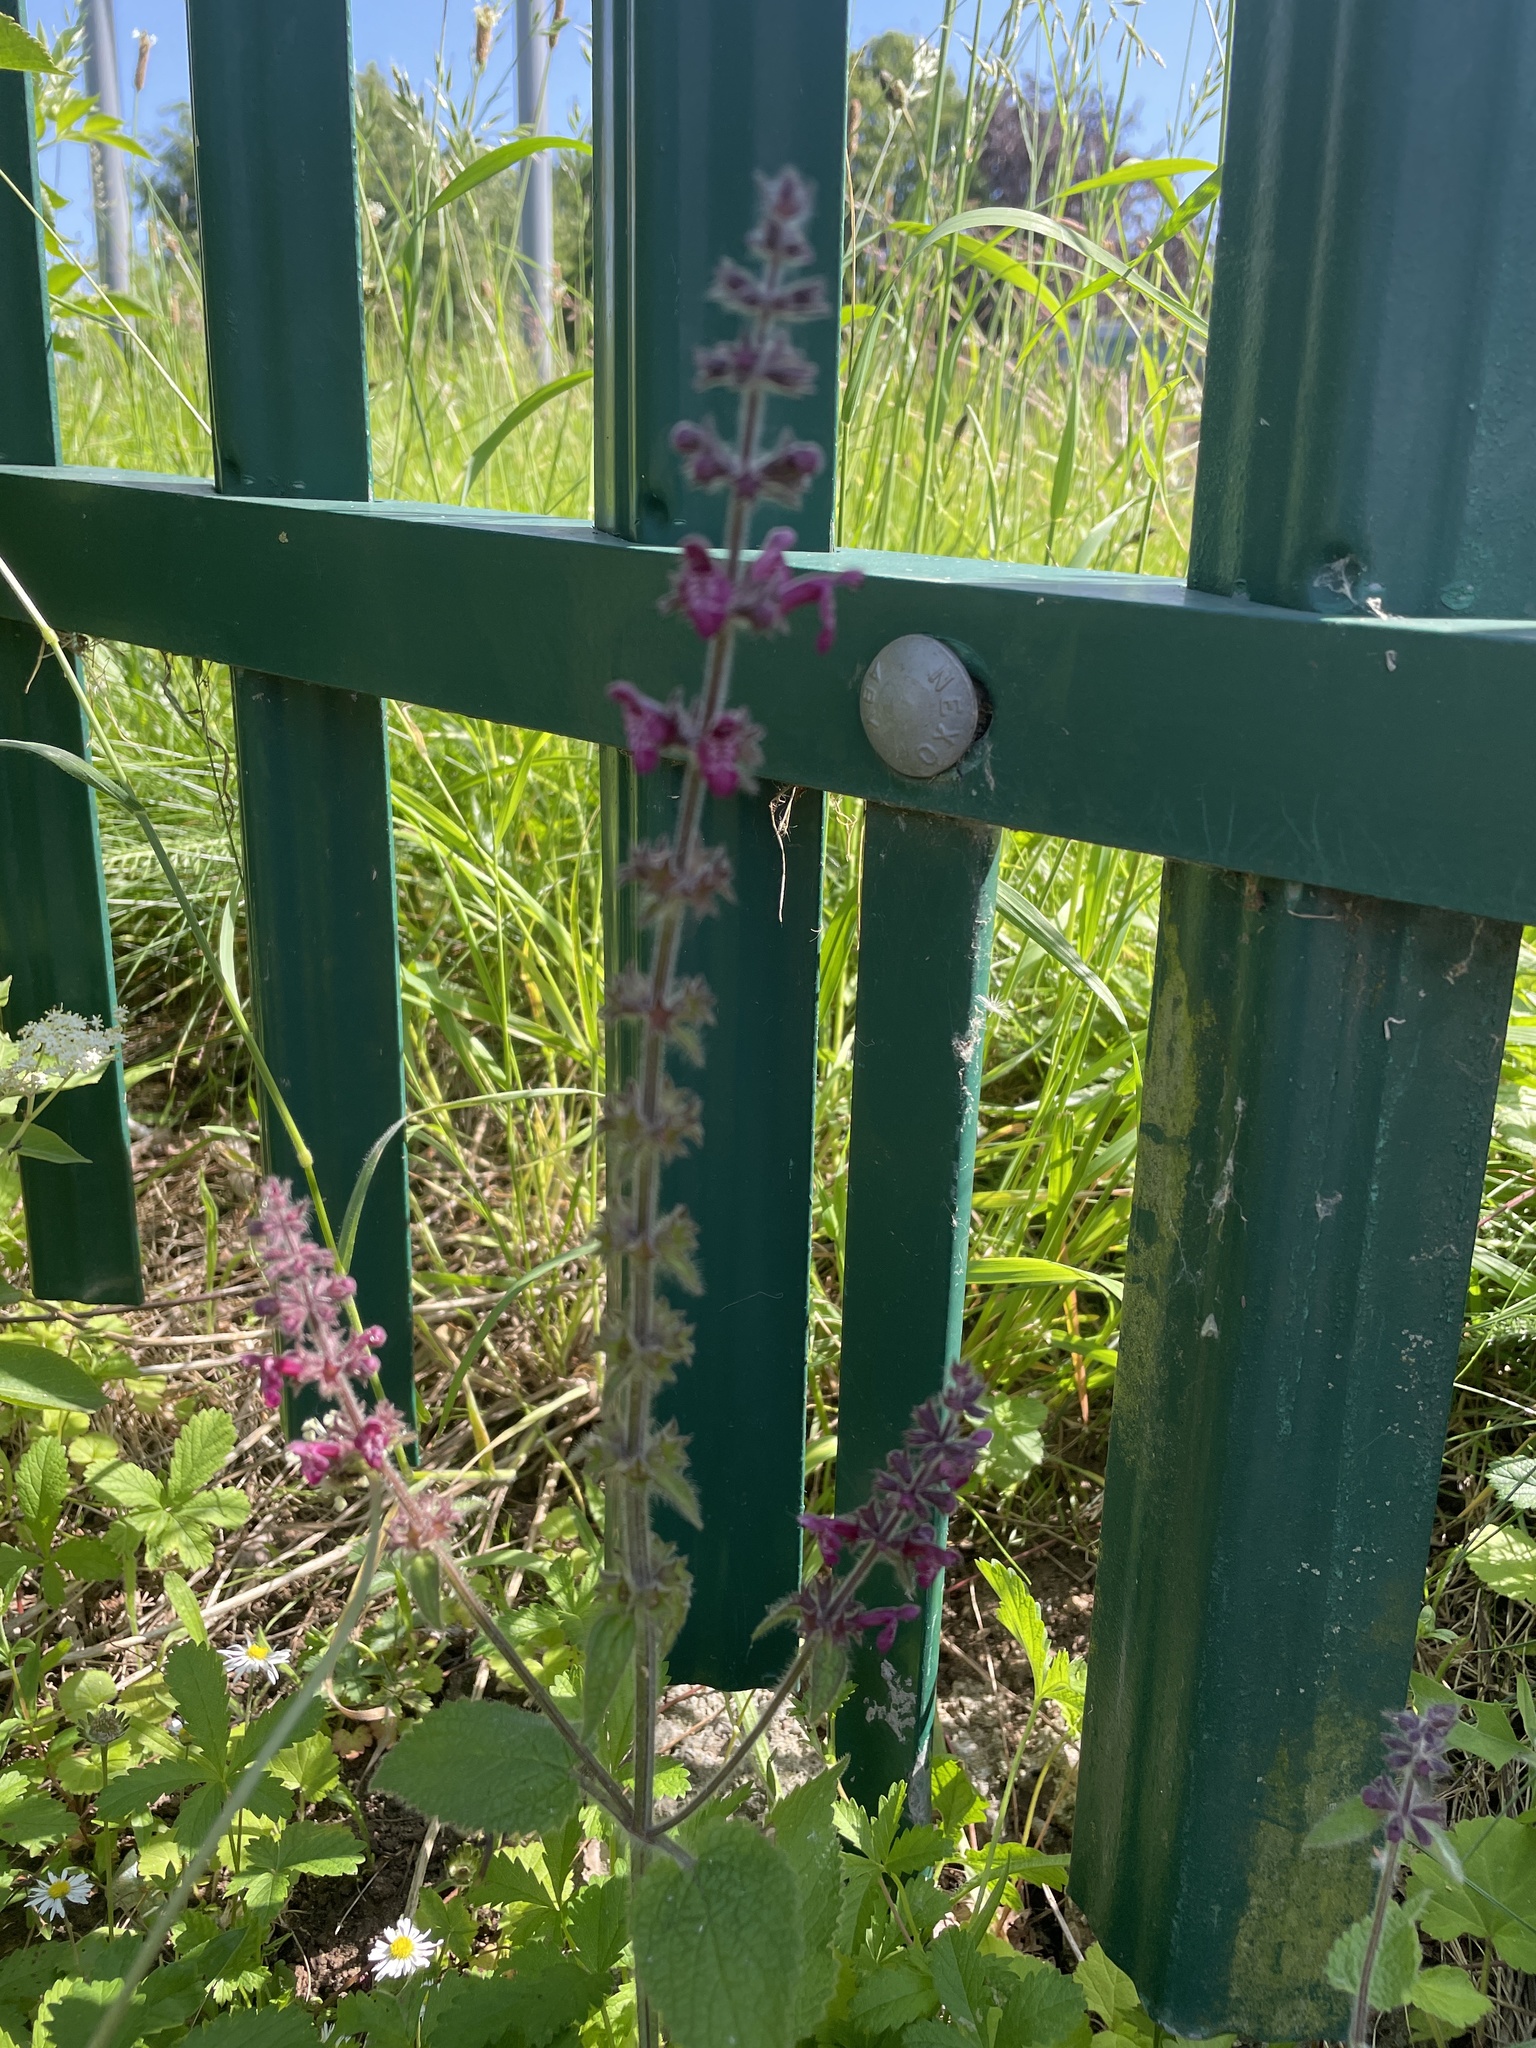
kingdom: Plantae
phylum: Tracheophyta
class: Magnoliopsida
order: Lamiales
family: Lamiaceae
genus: Stachys
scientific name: Stachys sylvatica
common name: Hedge woundwort
